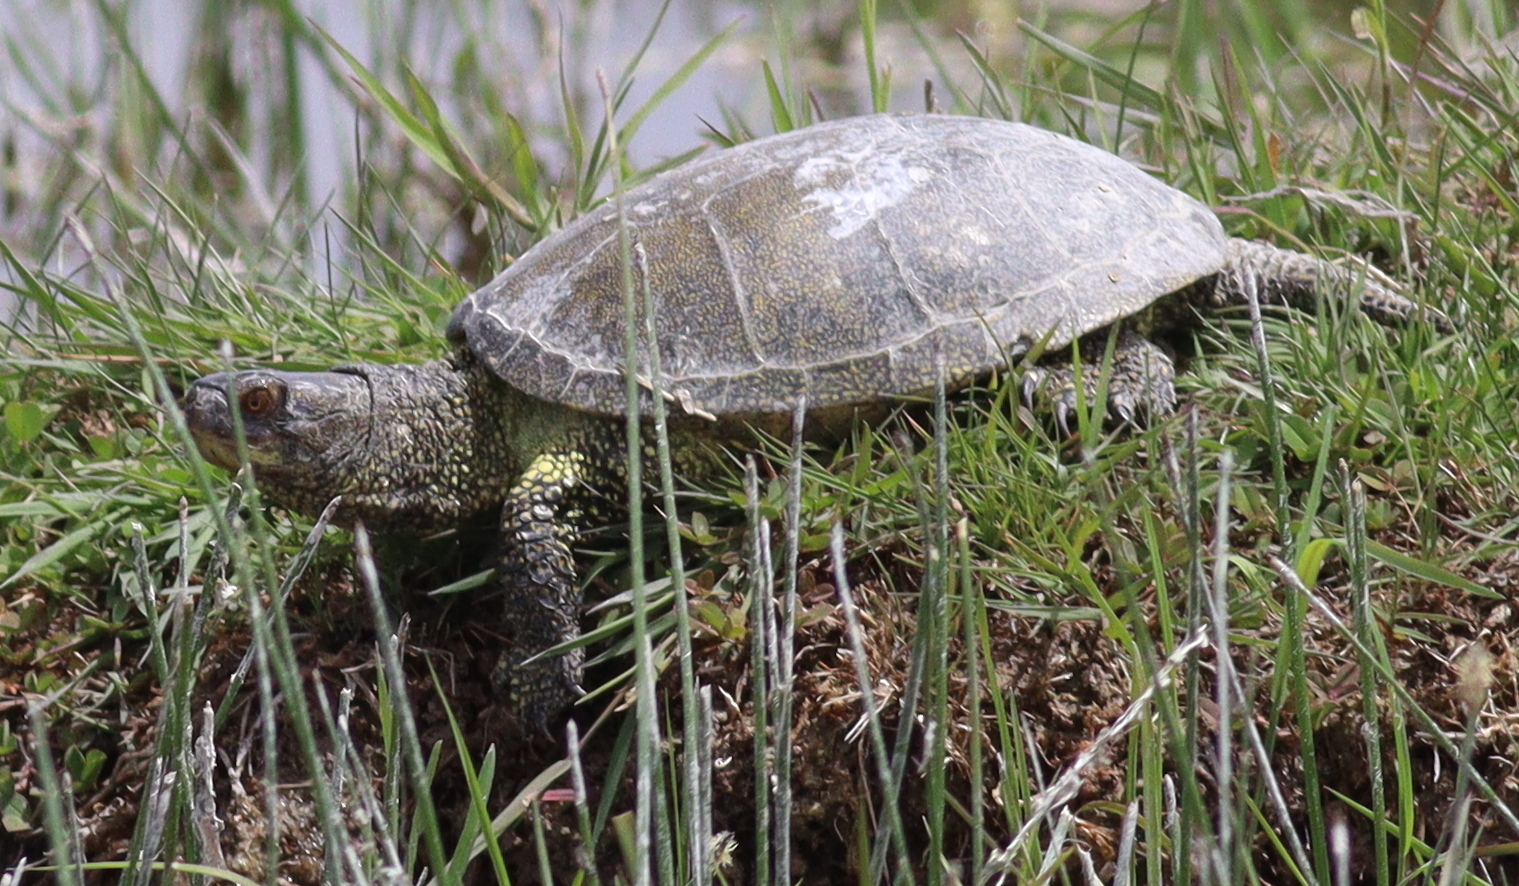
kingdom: Animalia
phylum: Chordata
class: Testudines
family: Emydidae
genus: Emys
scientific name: Emys orbicularis
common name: European pond turtle
